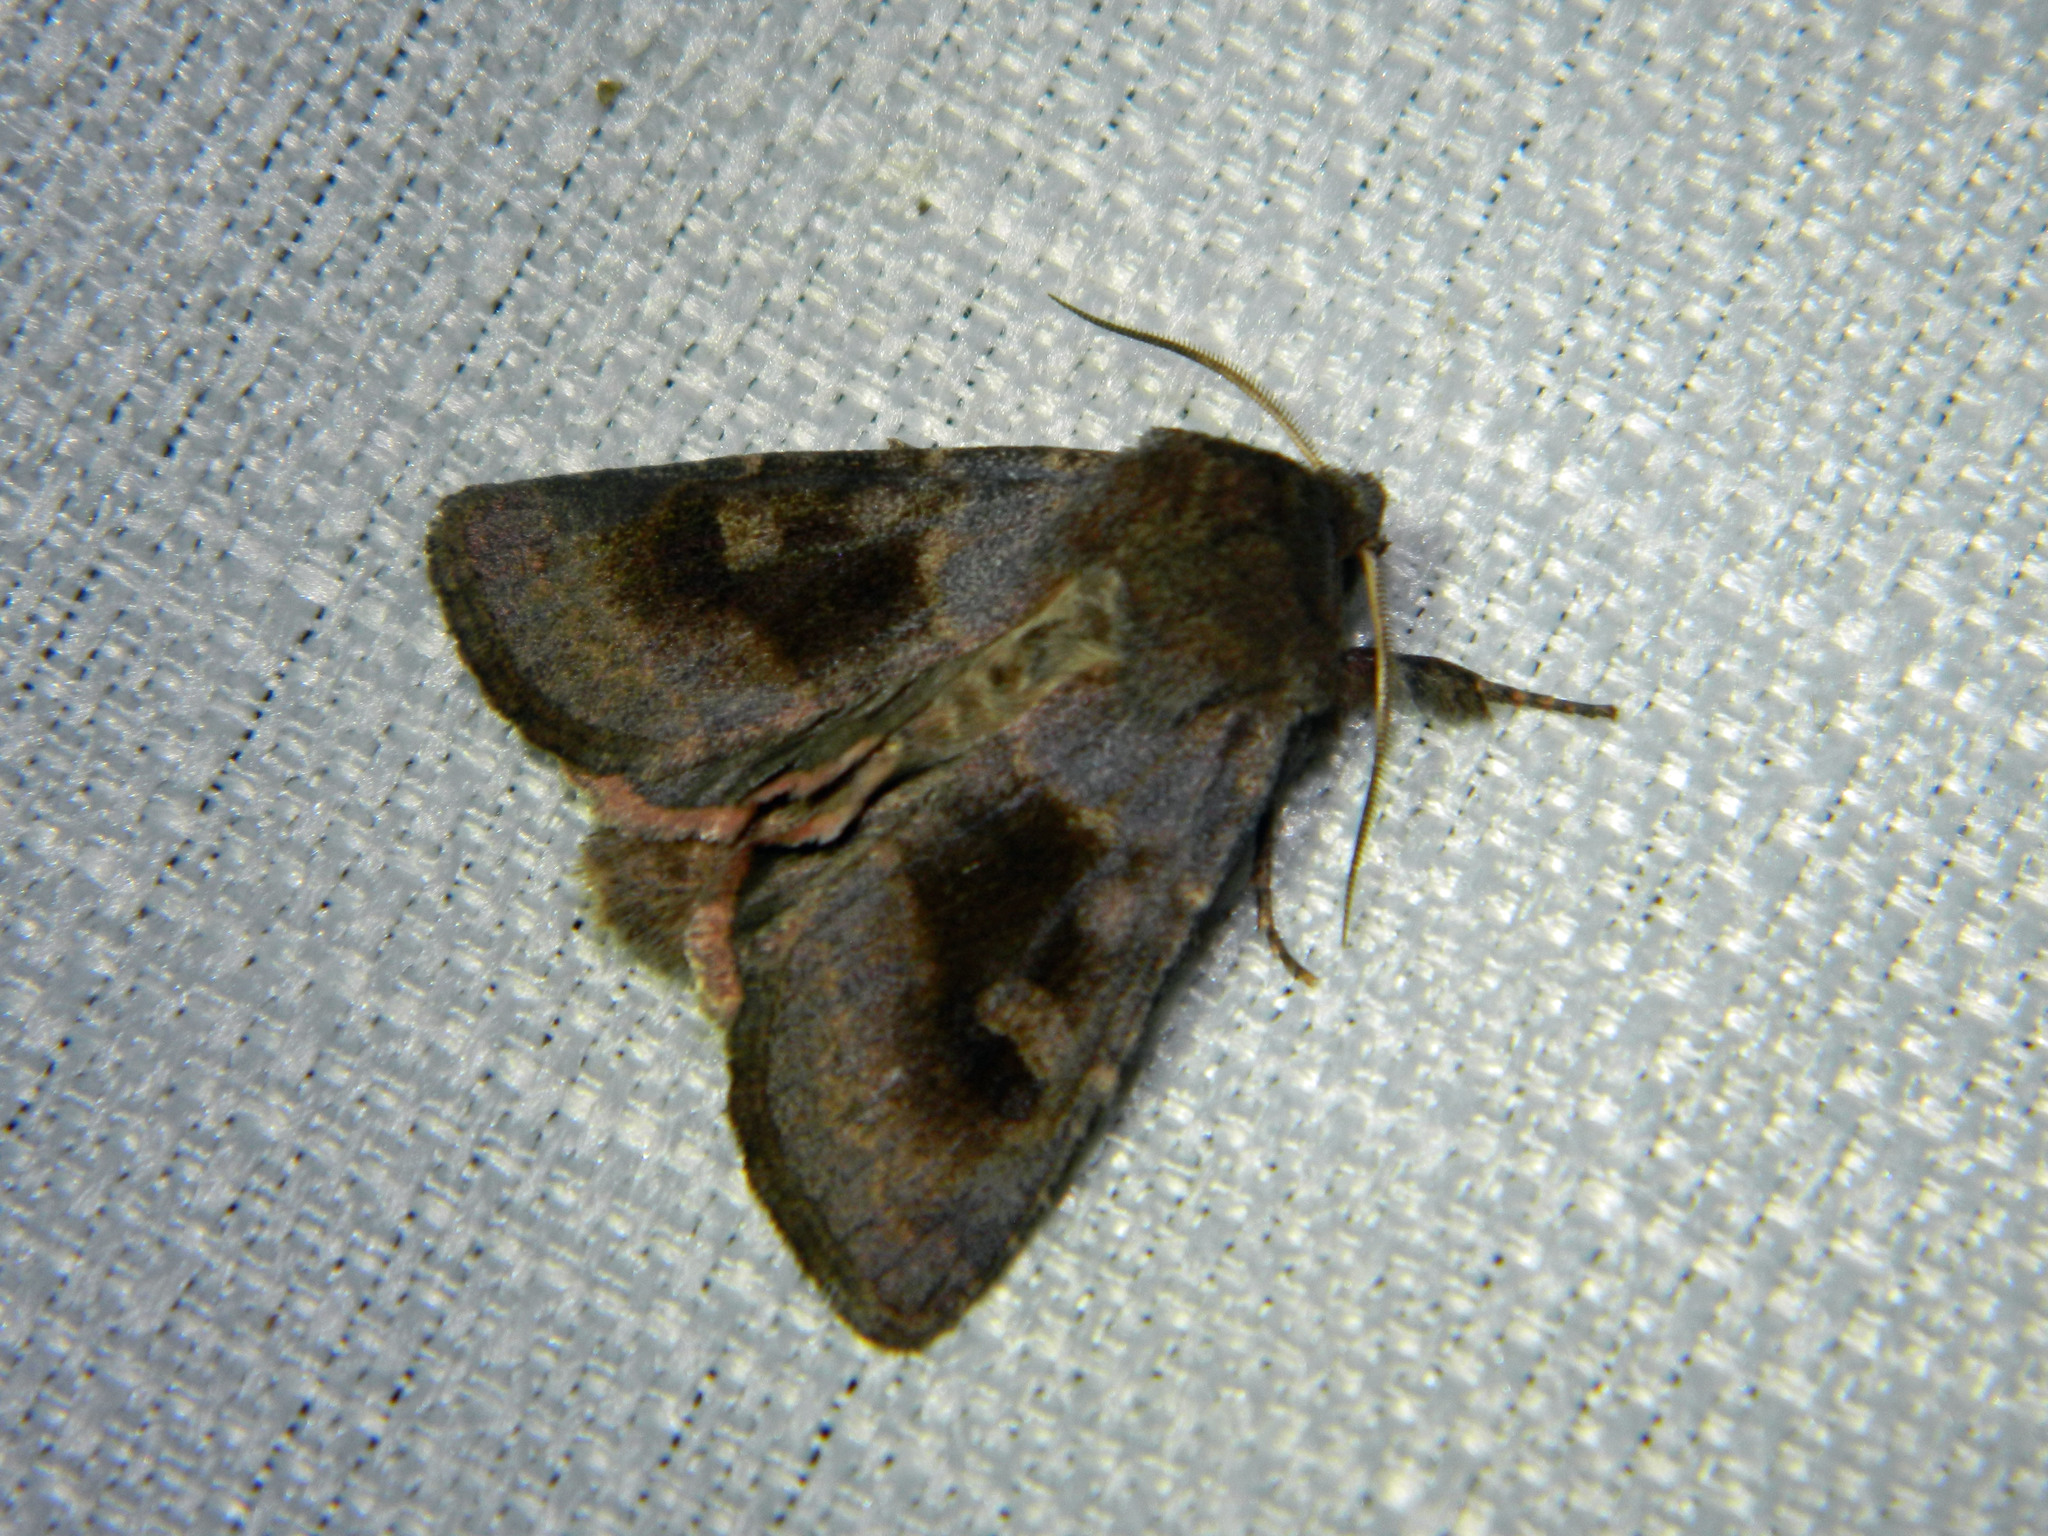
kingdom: Animalia
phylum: Arthropoda
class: Insecta
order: Lepidoptera
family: Noctuidae
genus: Nephelodes
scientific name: Nephelodes minians
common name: Bronzed cutworm
